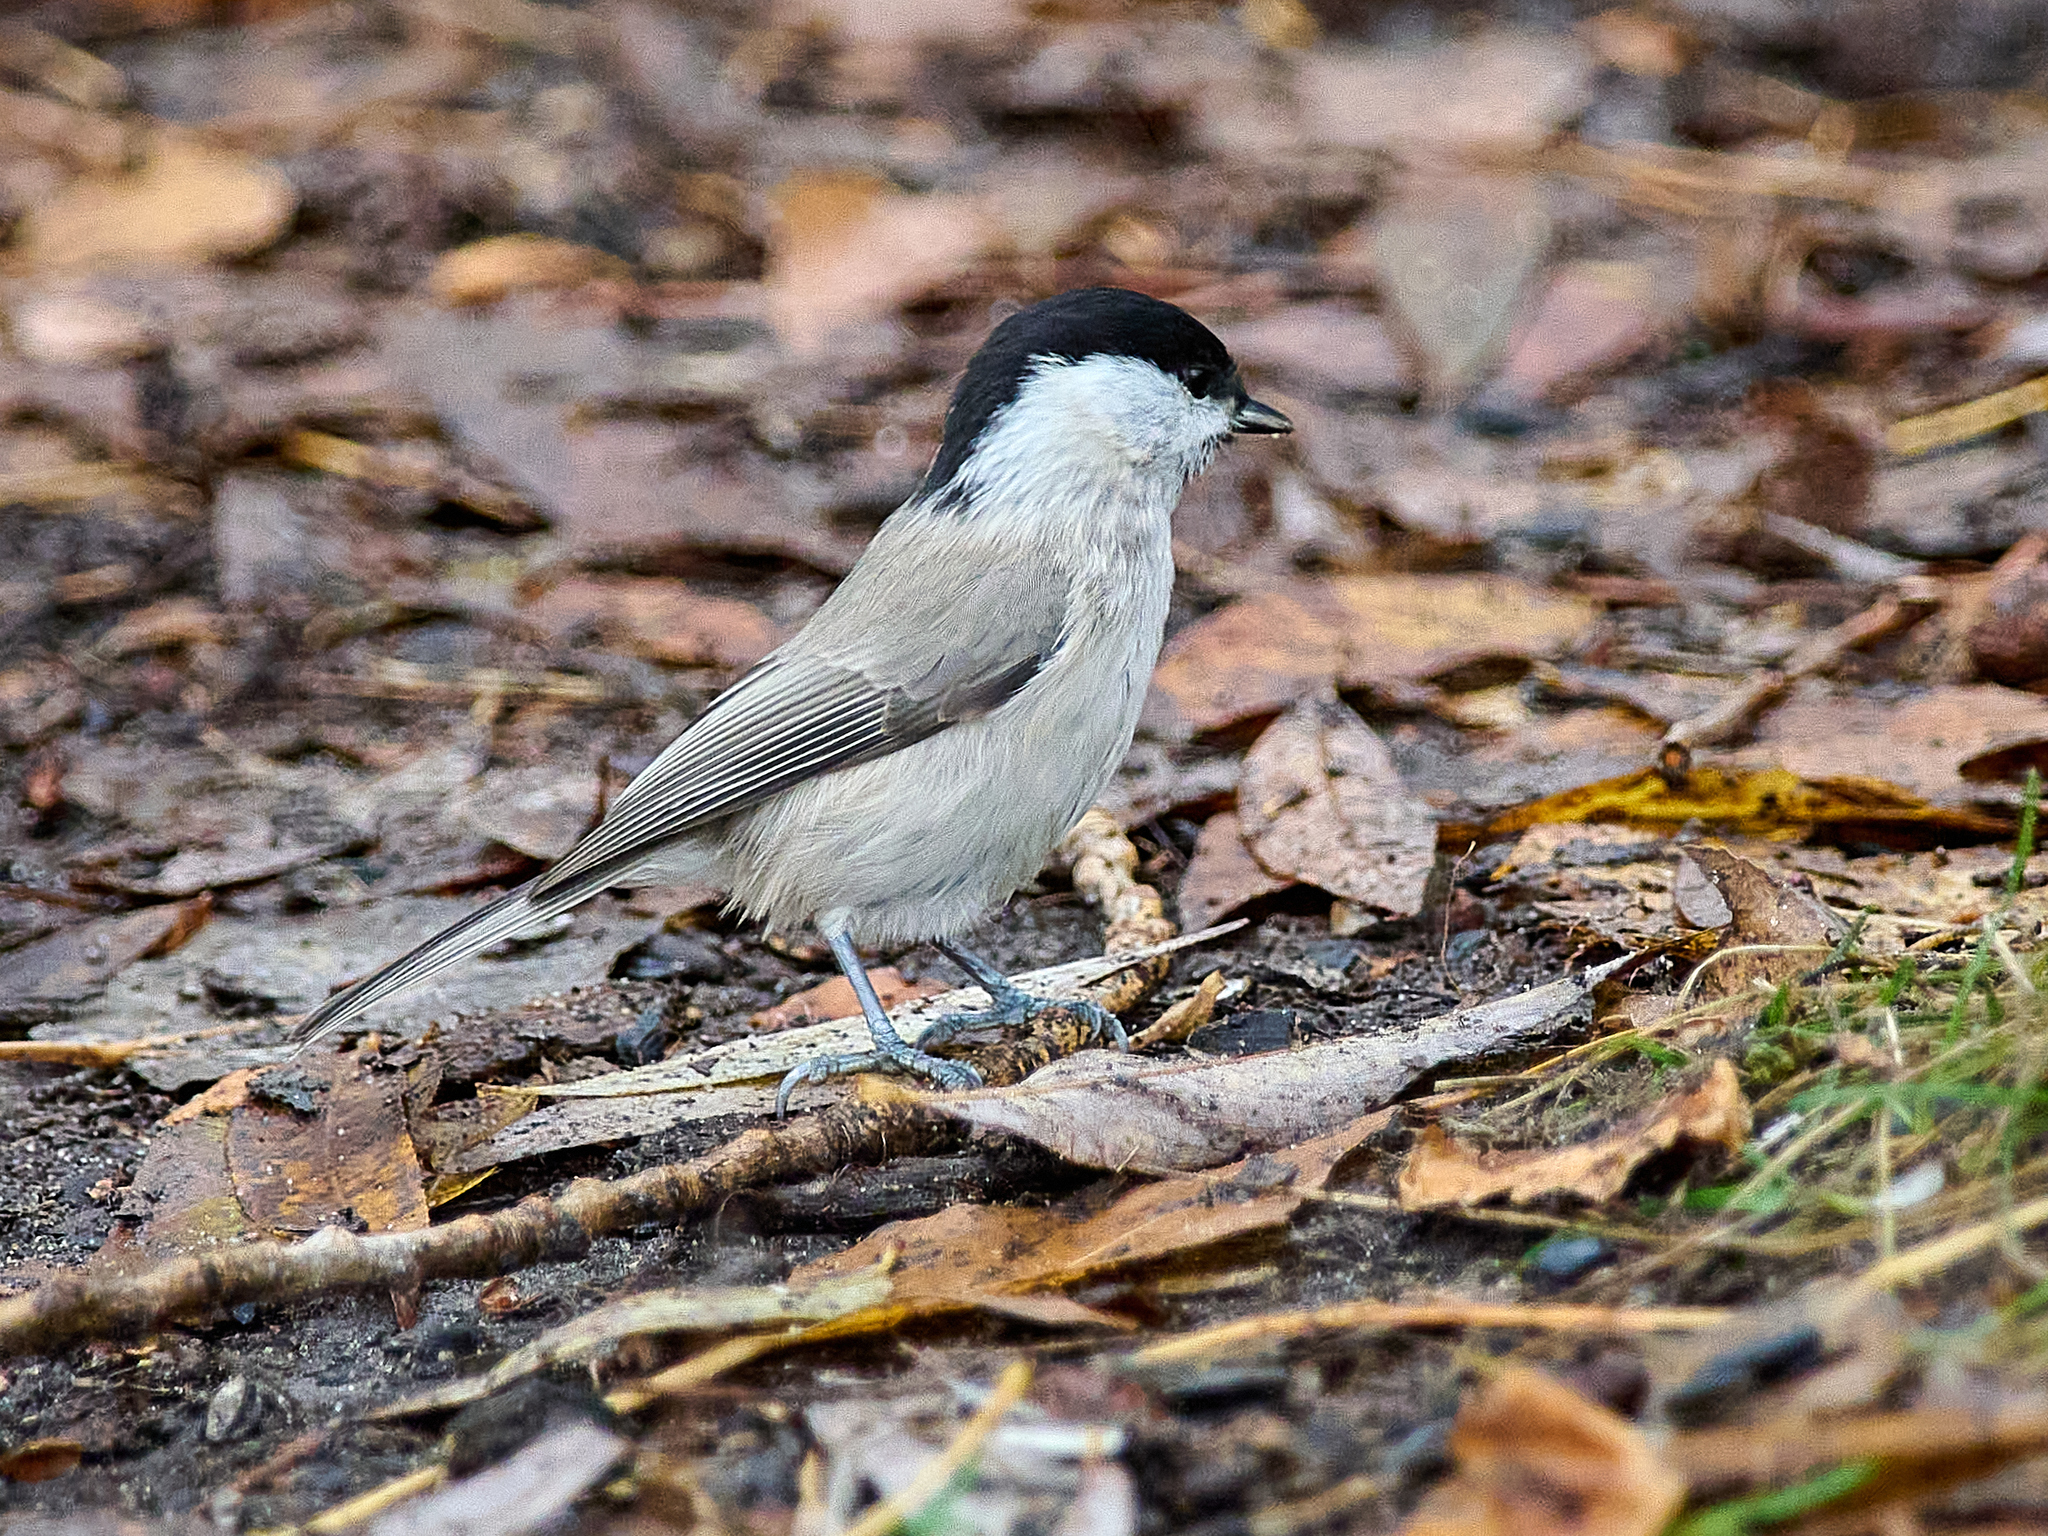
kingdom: Animalia
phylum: Chordata
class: Aves
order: Passeriformes
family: Paridae
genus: Poecile
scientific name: Poecile palustris
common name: Marsh tit
